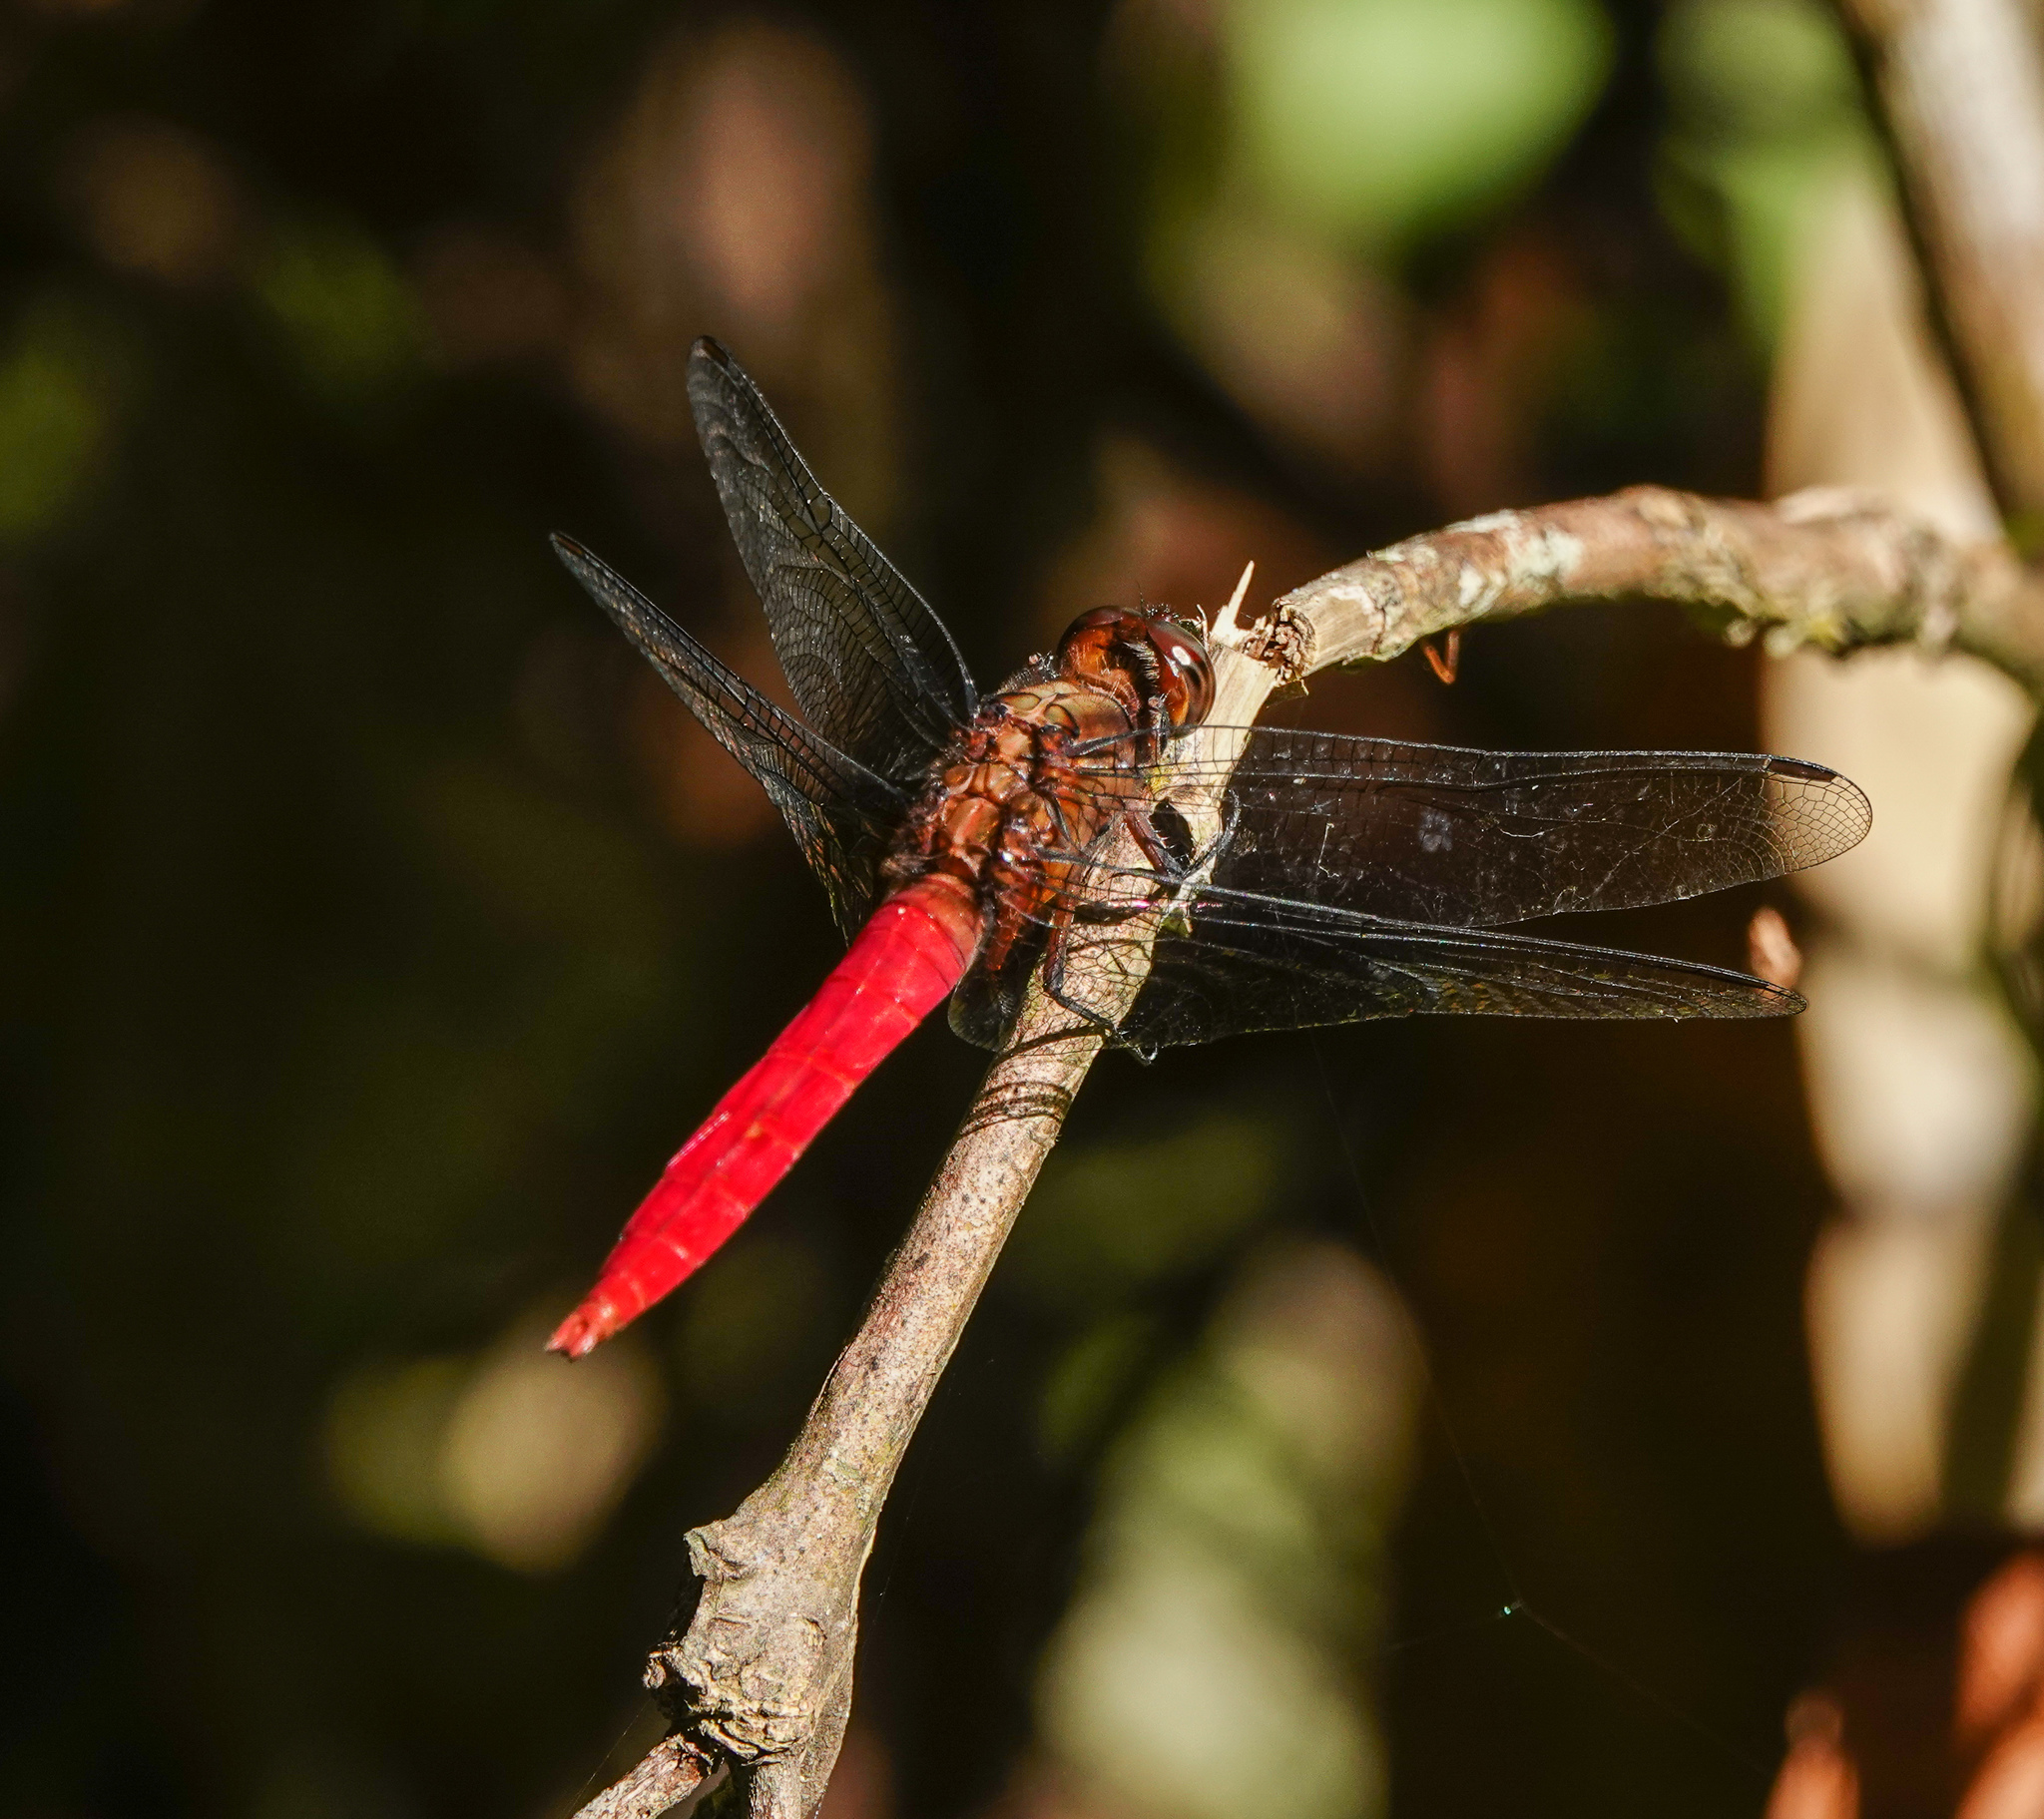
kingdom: Animalia
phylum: Arthropoda
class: Insecta
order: Odonata
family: Libellulidae
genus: Orthetrum
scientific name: Orthetrum chrysis
